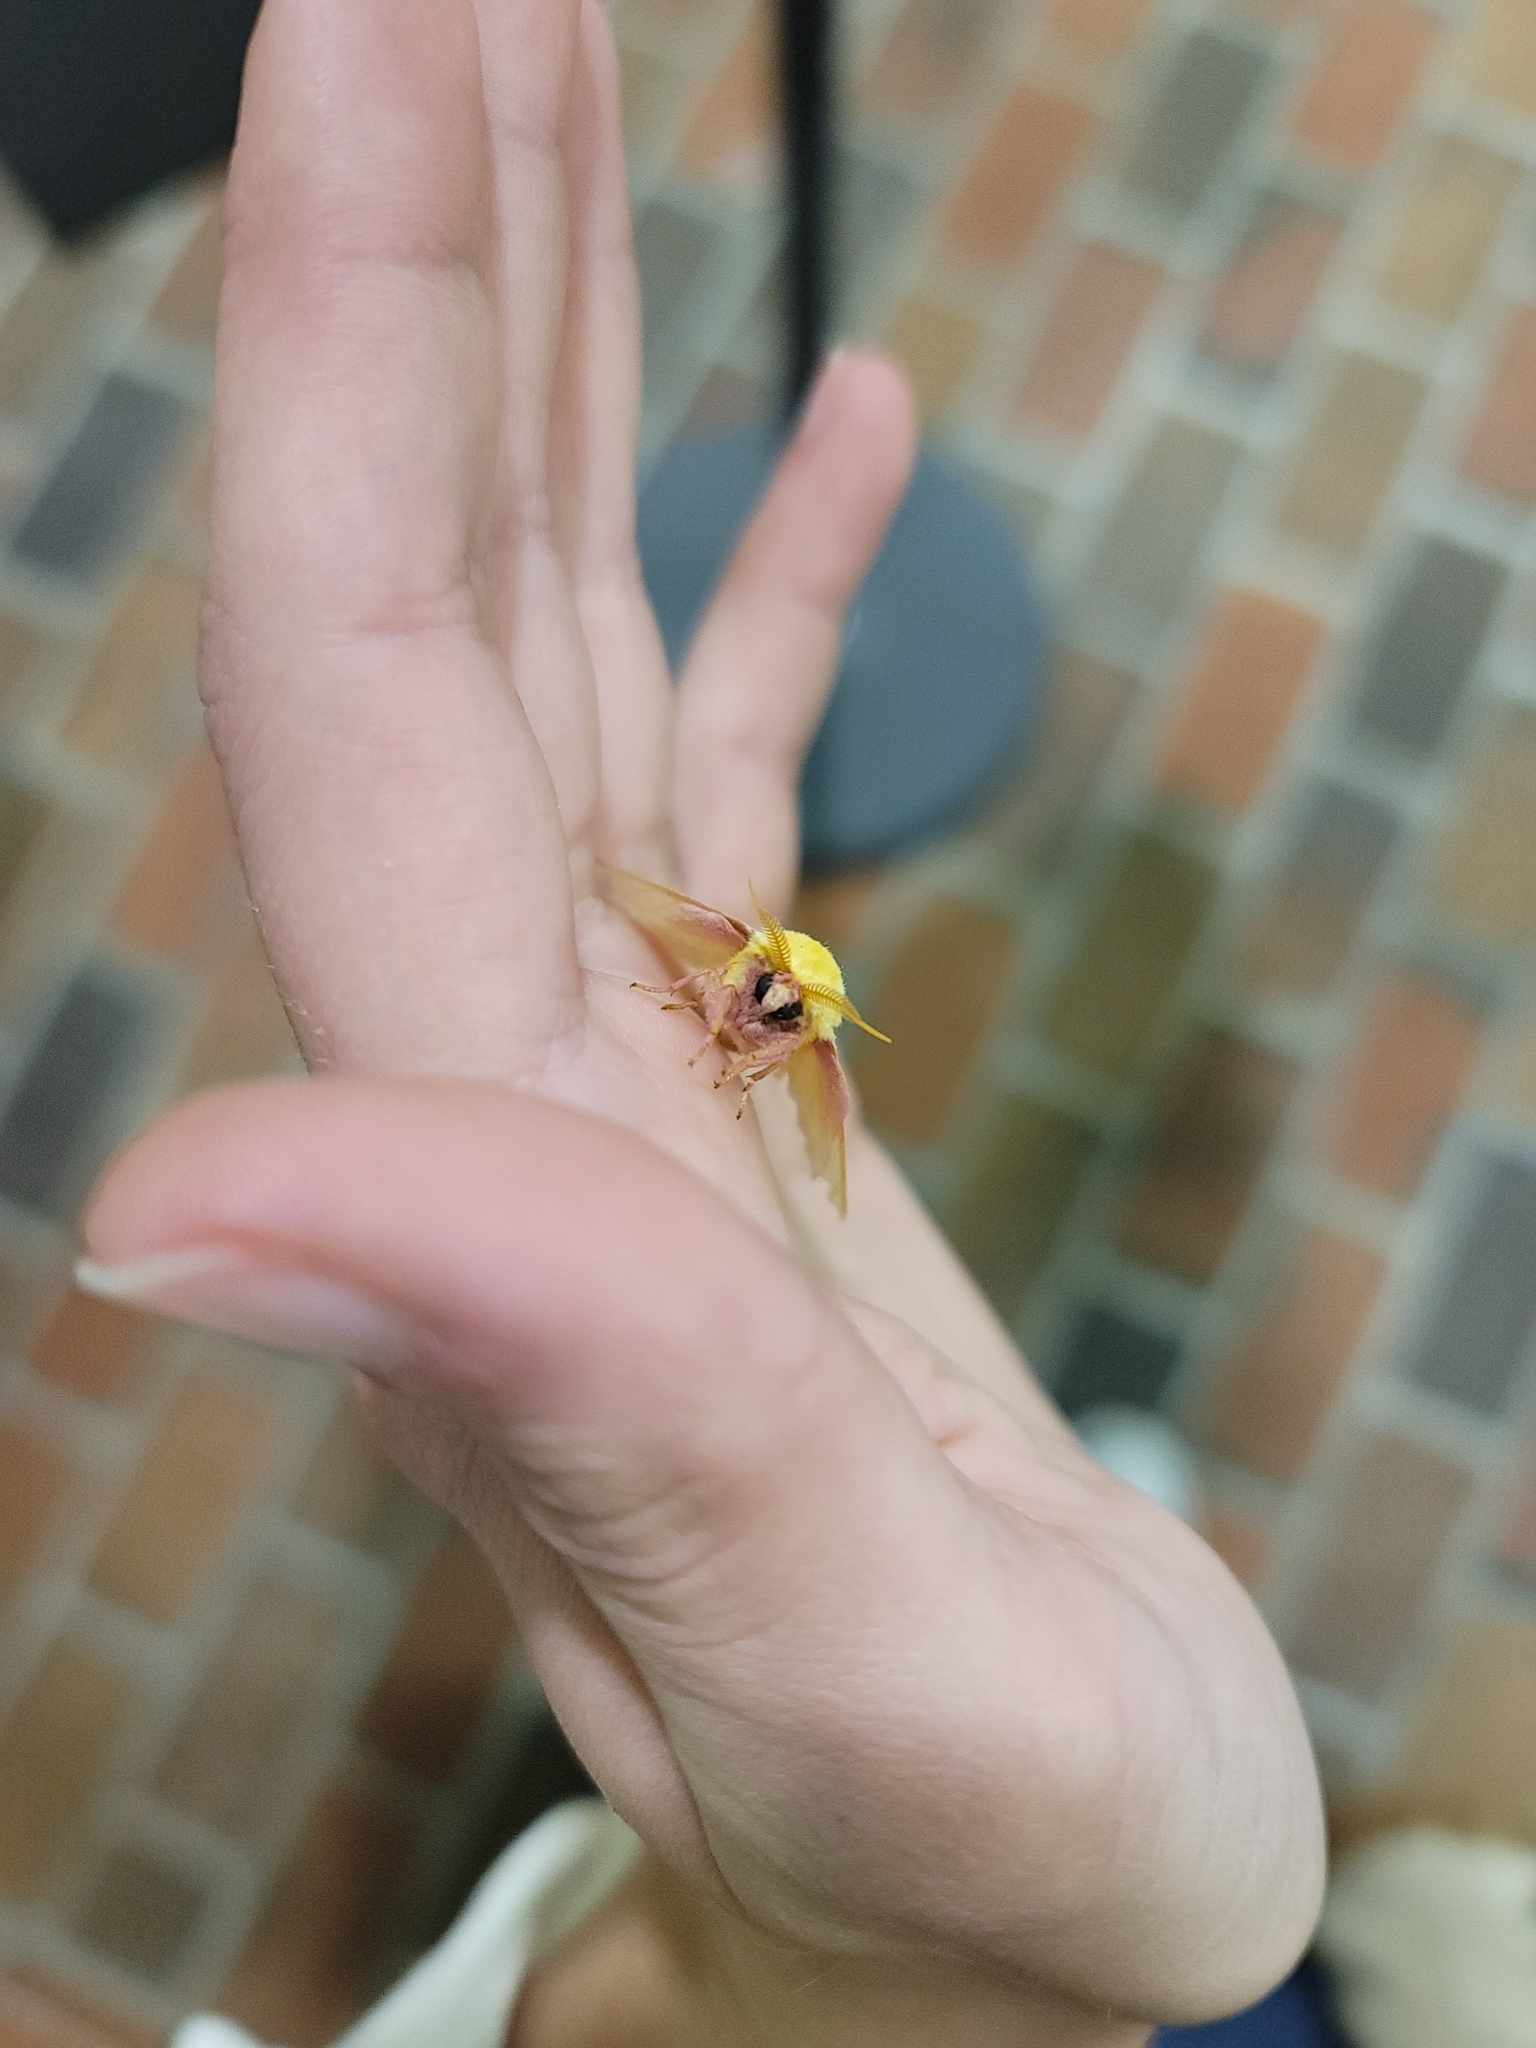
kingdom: Animalia
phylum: Arthropoda
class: Insecta
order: Lepidoptera
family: Saturniidae
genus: Dryocampa
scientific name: Dryocampa rubicunda
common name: Rosy maple moth
